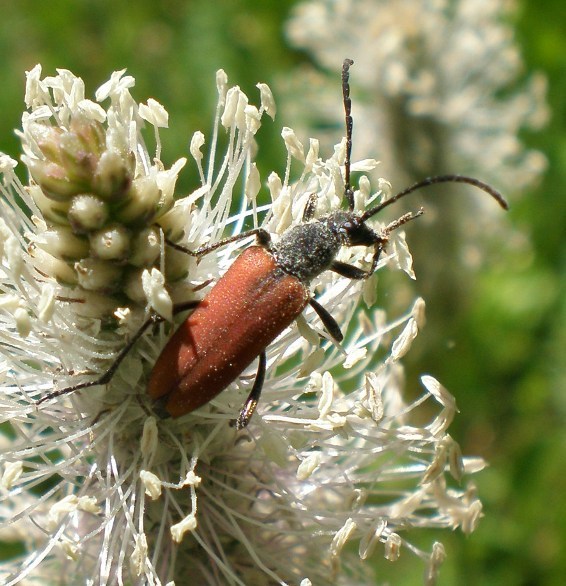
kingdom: Animalia
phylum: Arthropoda
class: Insecta
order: Coleoptera
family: Cerambycidae
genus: Anastrangalia
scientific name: Anastrangalia sanguinolenta
